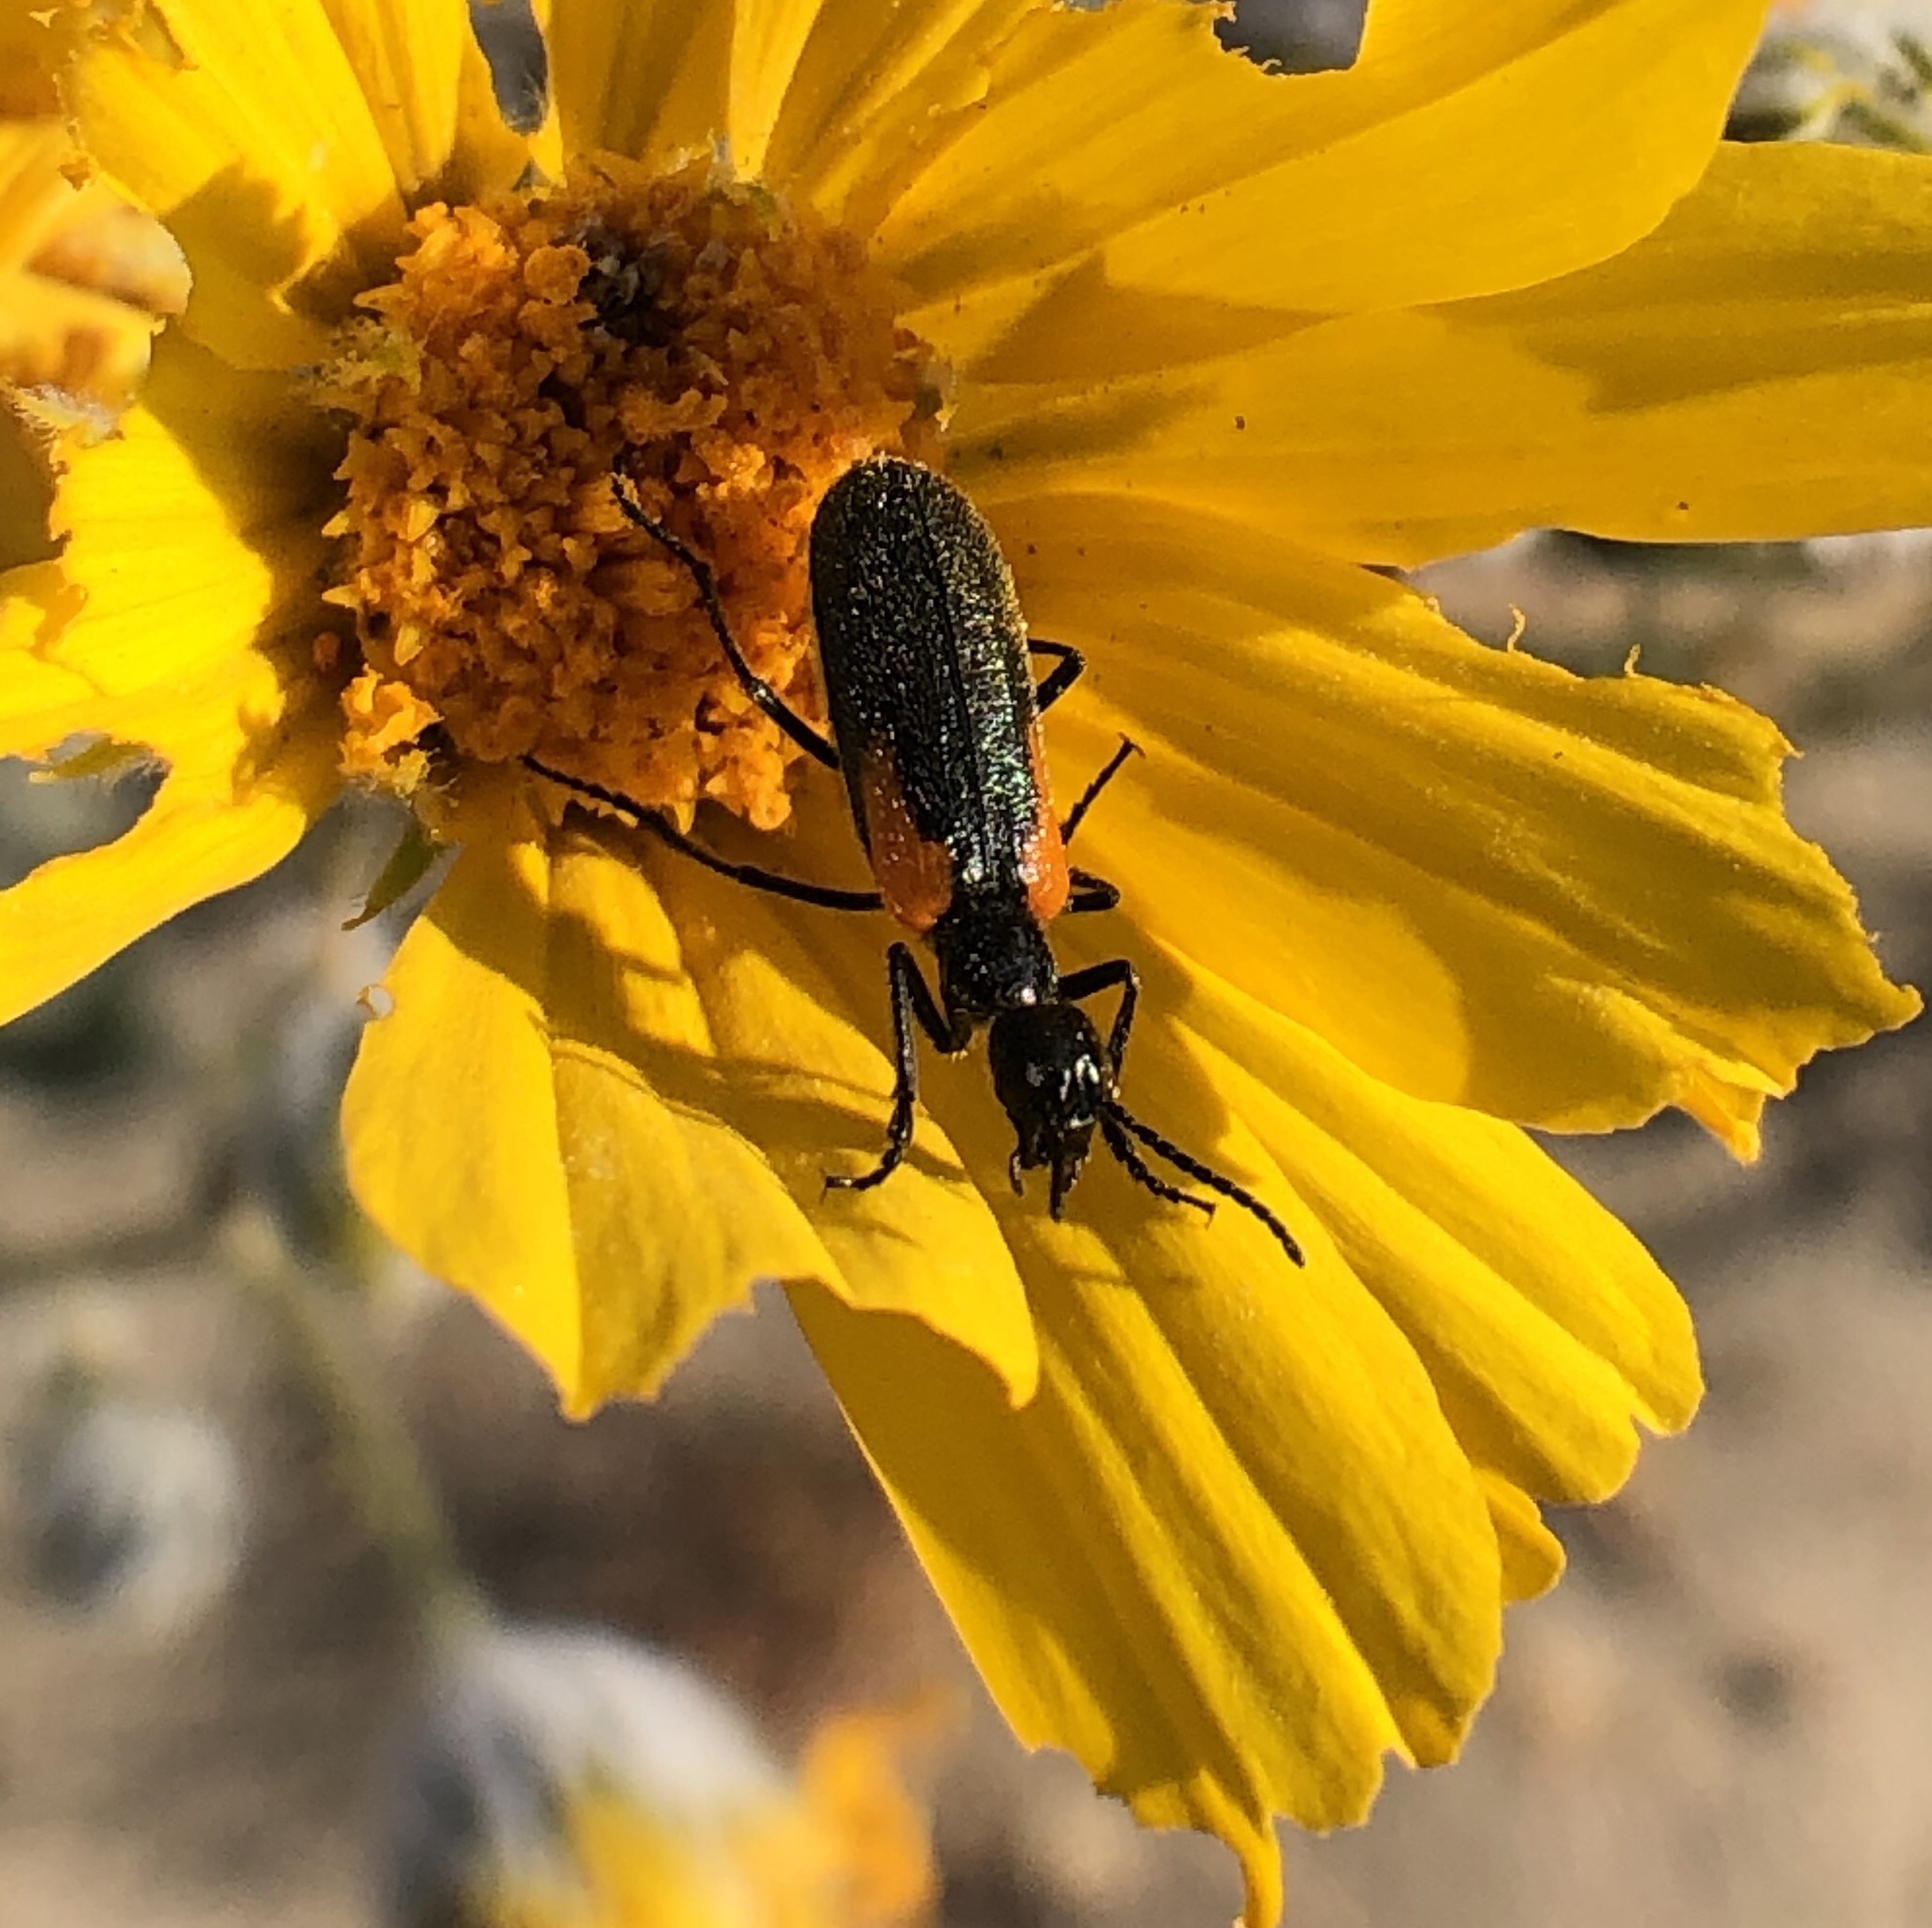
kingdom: Animalia
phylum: Arthropoda
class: Insecta
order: Coleoptera
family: Meloidae
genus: Eupompha
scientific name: Eupompha elegans
